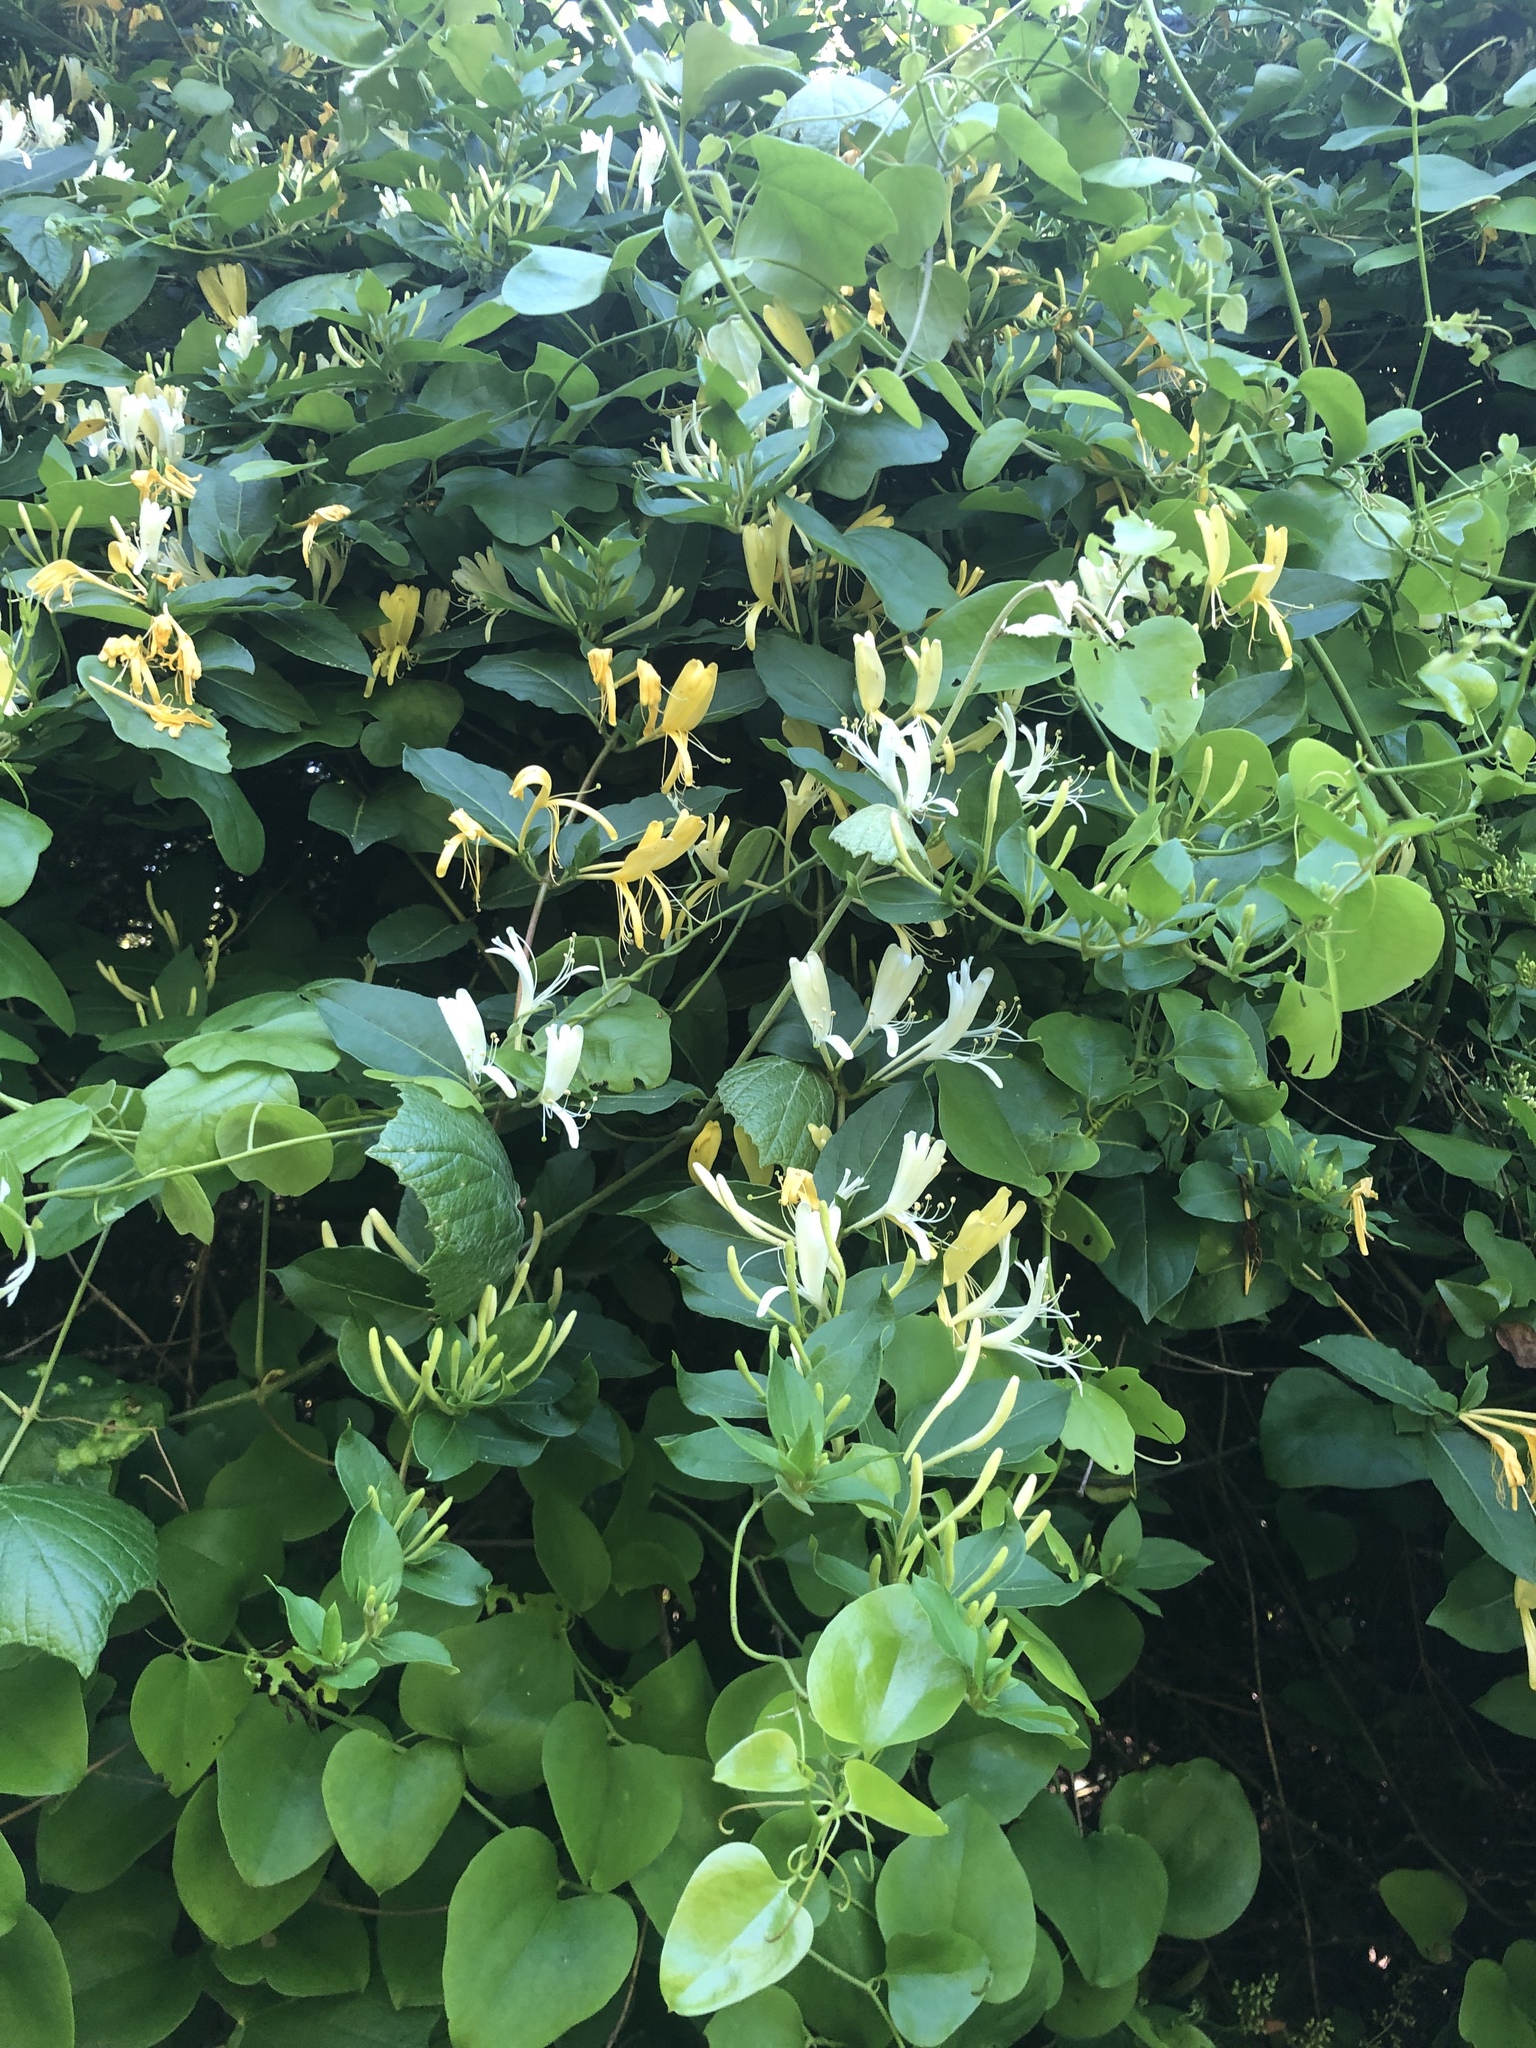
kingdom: Plantae
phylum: Tracheophyta
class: Magnoliopsida
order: Dipsacales
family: Caprifoliaceae
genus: Lonicera
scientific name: Lonicera japonica
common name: Japanese honeysuckle
